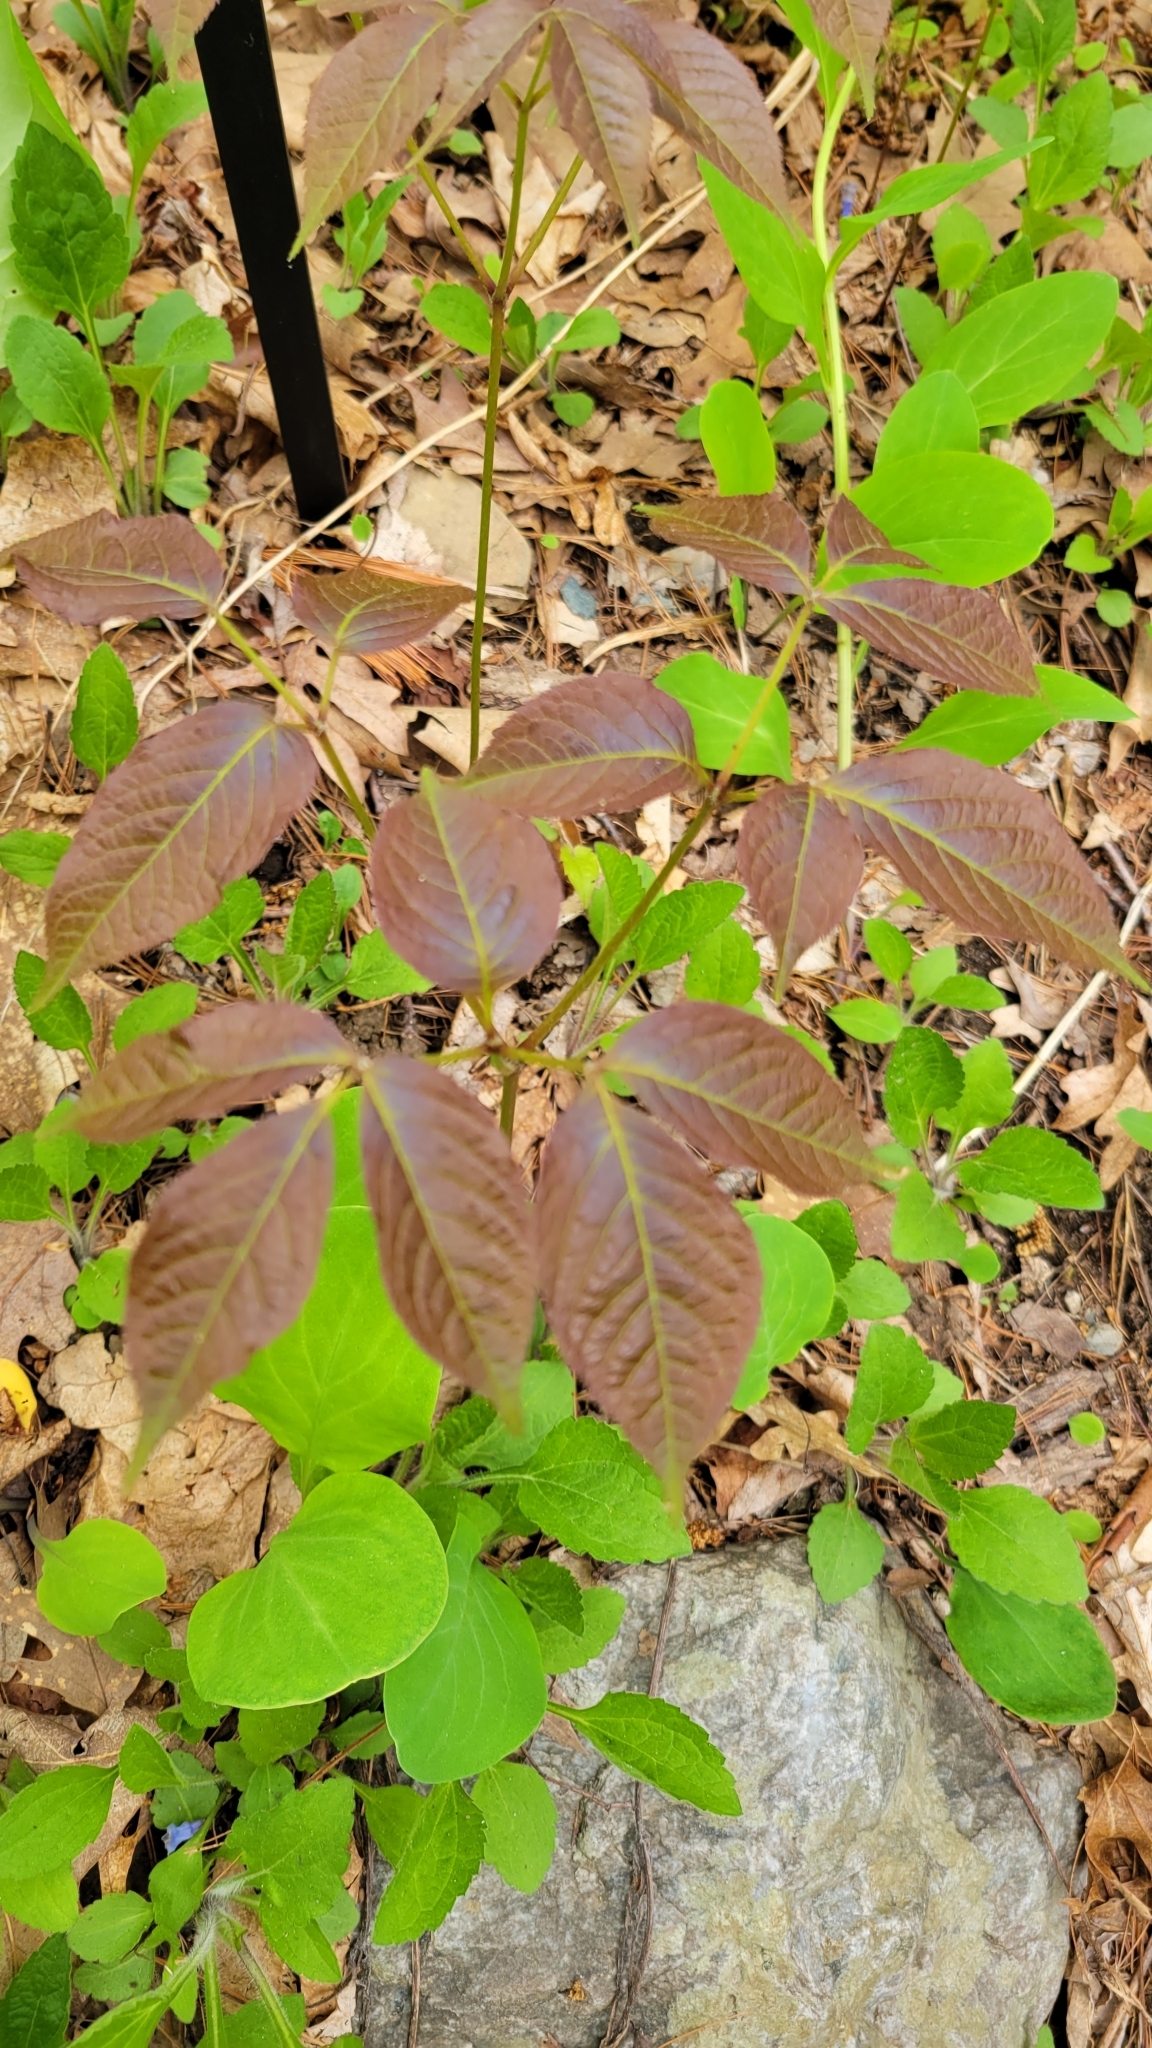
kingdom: Plantae
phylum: Tracheophyta
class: Magnoliopsida
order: Apiales
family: Araliaceae
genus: Aralia
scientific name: Aralia nudicaulis
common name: Wild sarsaparilla
